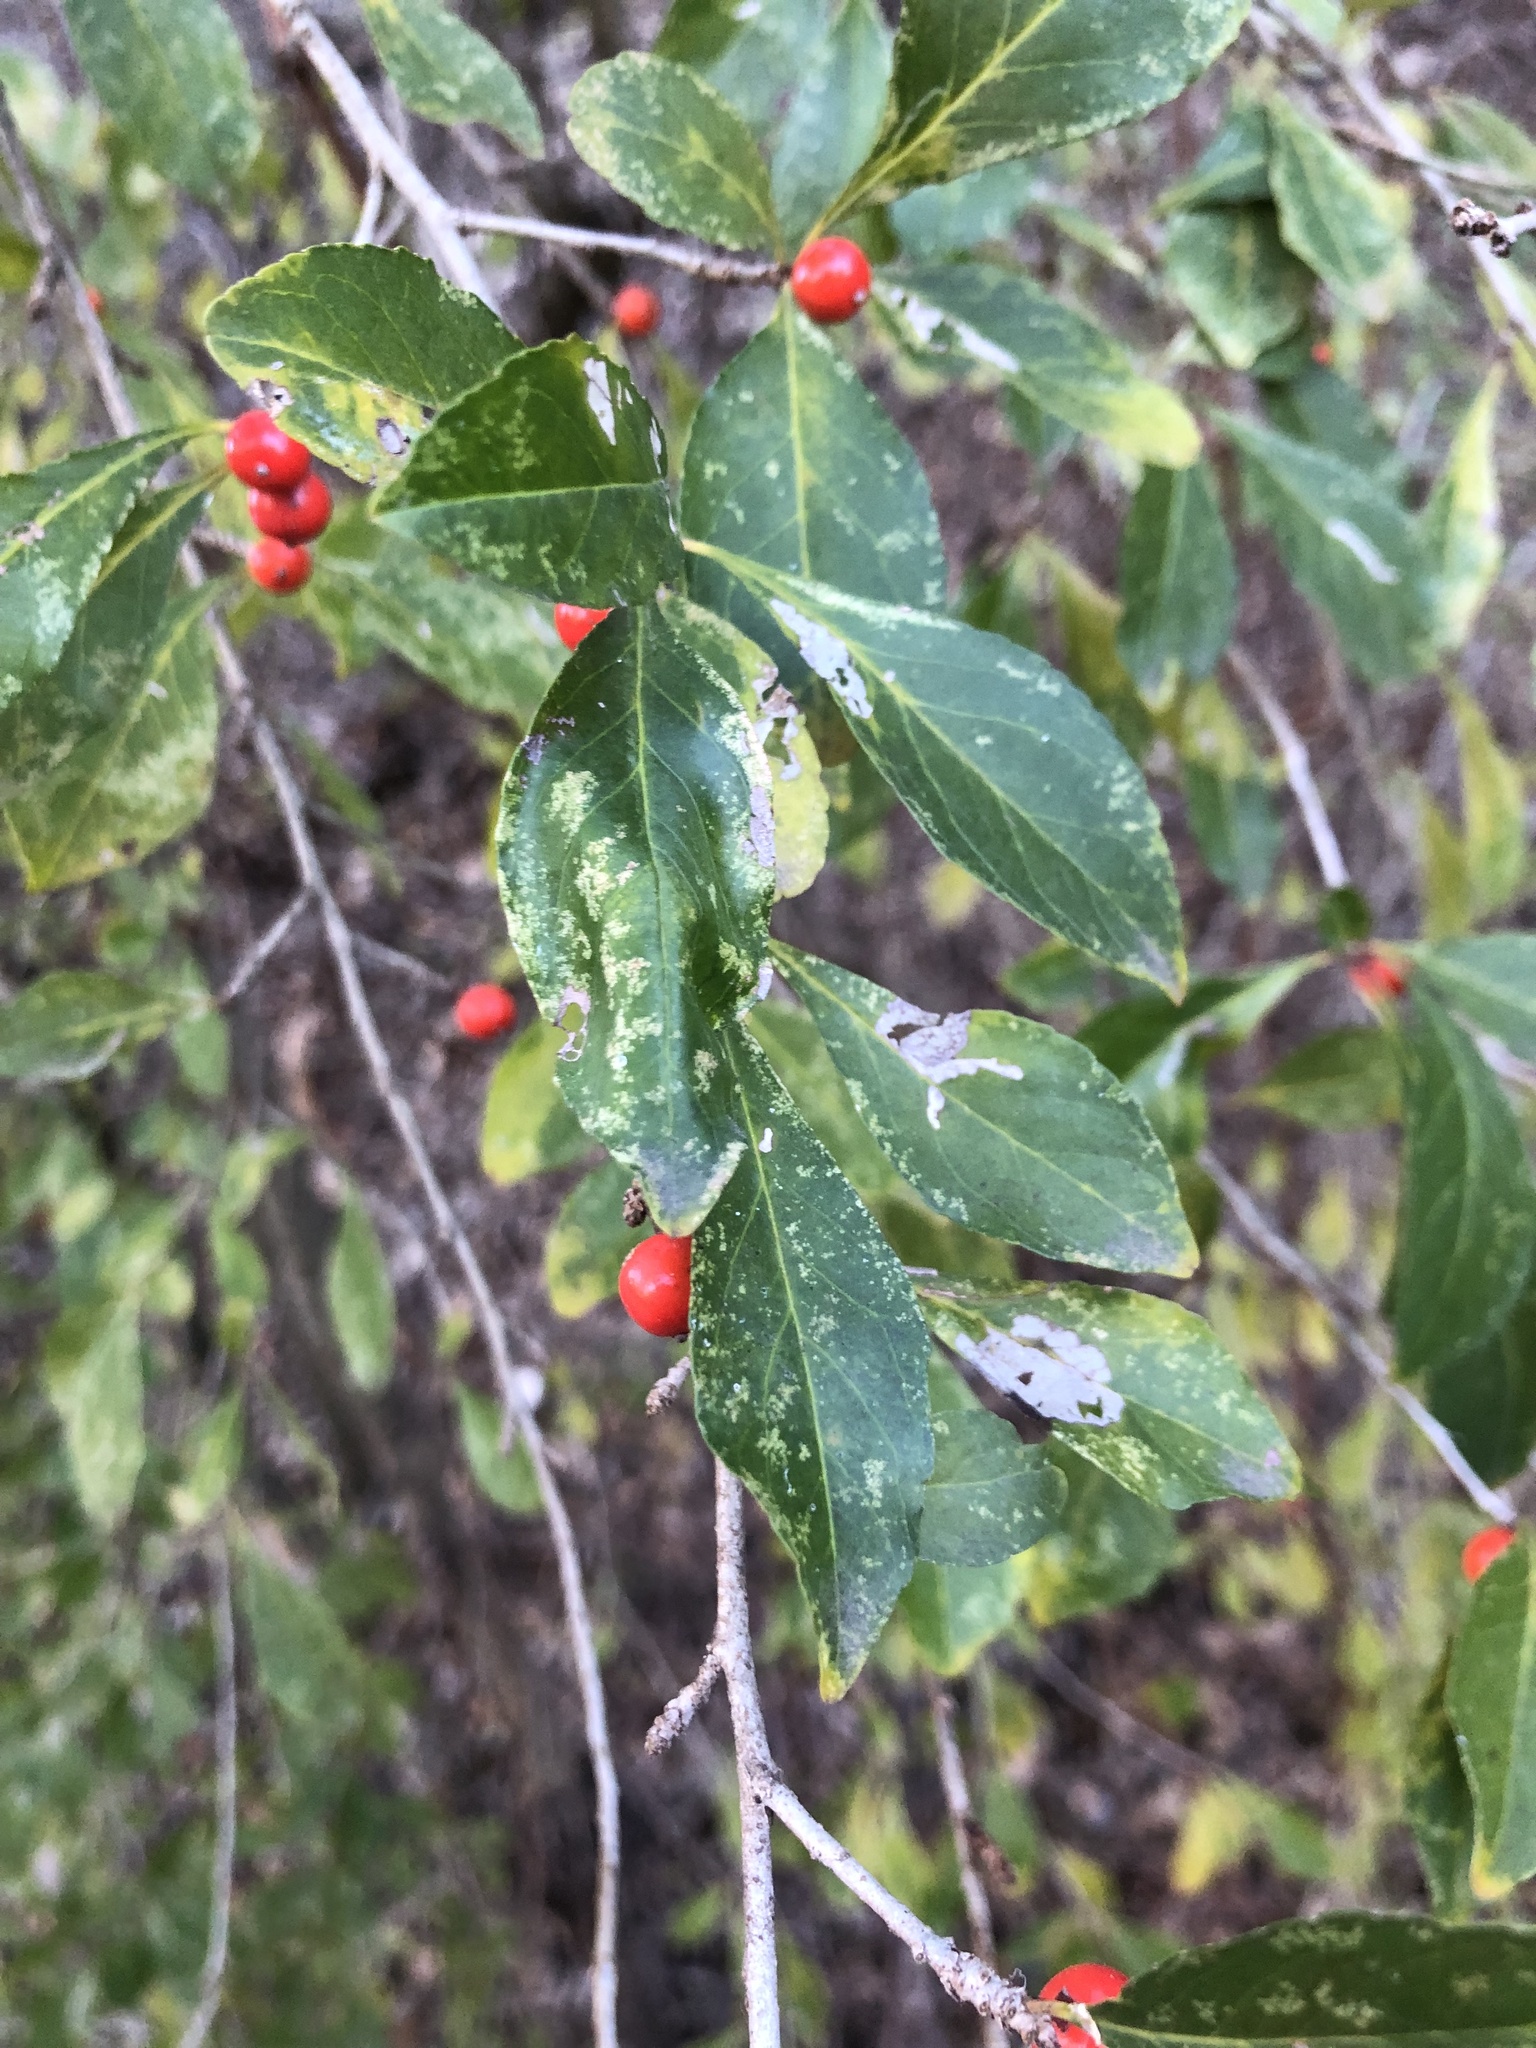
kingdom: Plantae
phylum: Tracheophyta
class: Magnoliopsida
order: Aquifoliales
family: Aquifoliaceae
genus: Ilex
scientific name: Ilex decidua
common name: Possum-haw
